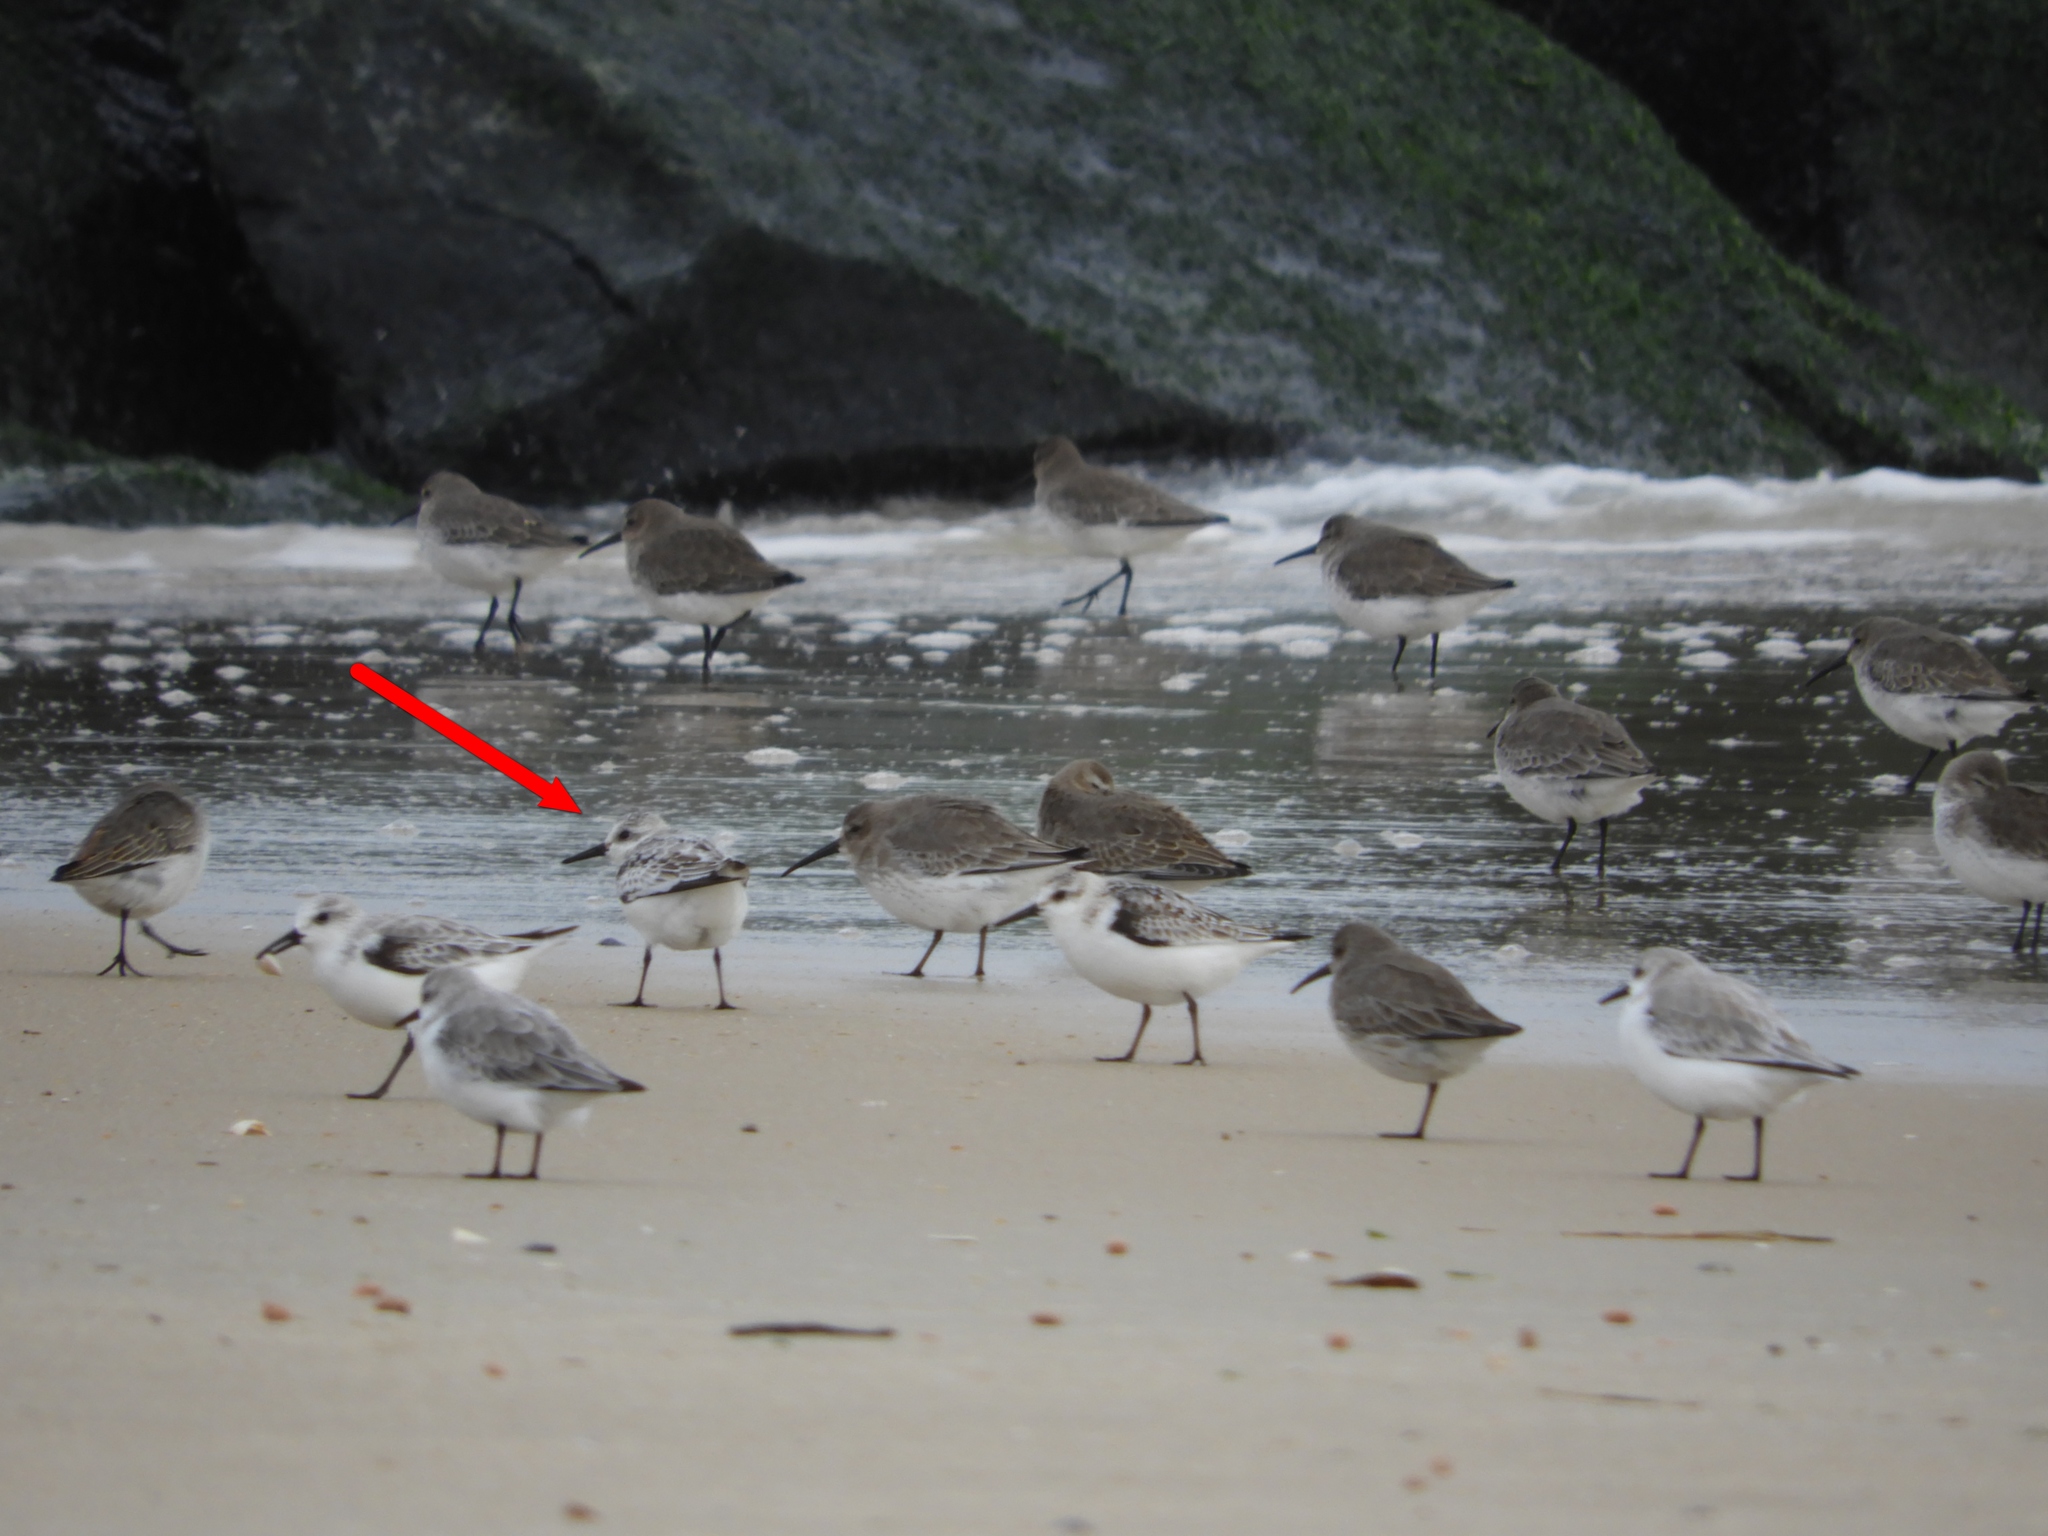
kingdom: Animalia
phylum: Chordata
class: Aves
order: Charadriiformes
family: Scolopacidae
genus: Calidris
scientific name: Calidris alba
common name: Sanderling
